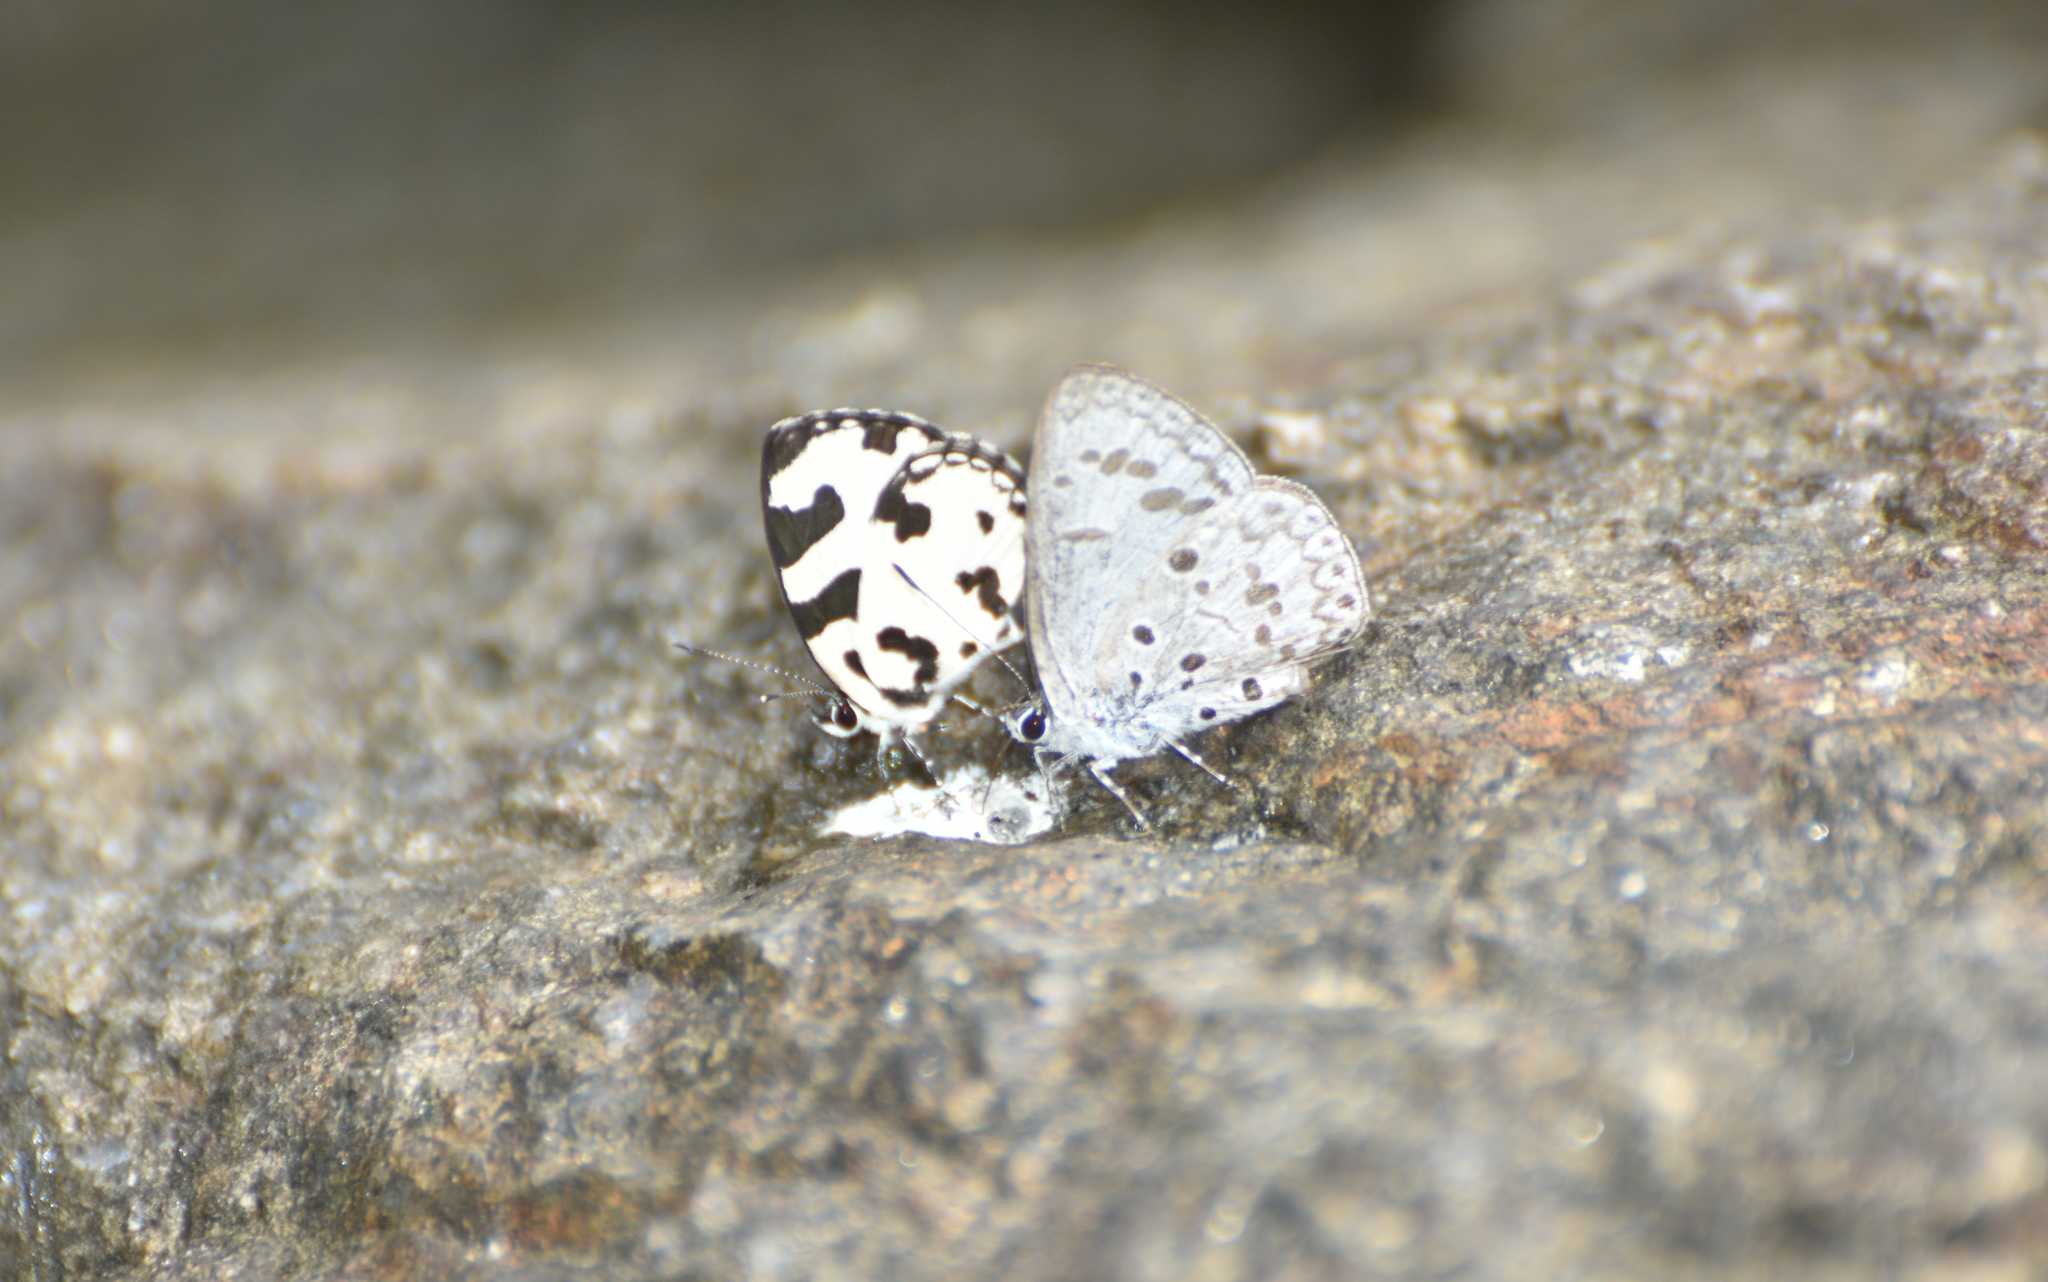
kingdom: Animalia
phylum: Arthropoda
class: Insecta
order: Lepidoptera
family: Lycaenidae
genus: Caleta
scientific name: Caleta decidia
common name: Angled pierrot
